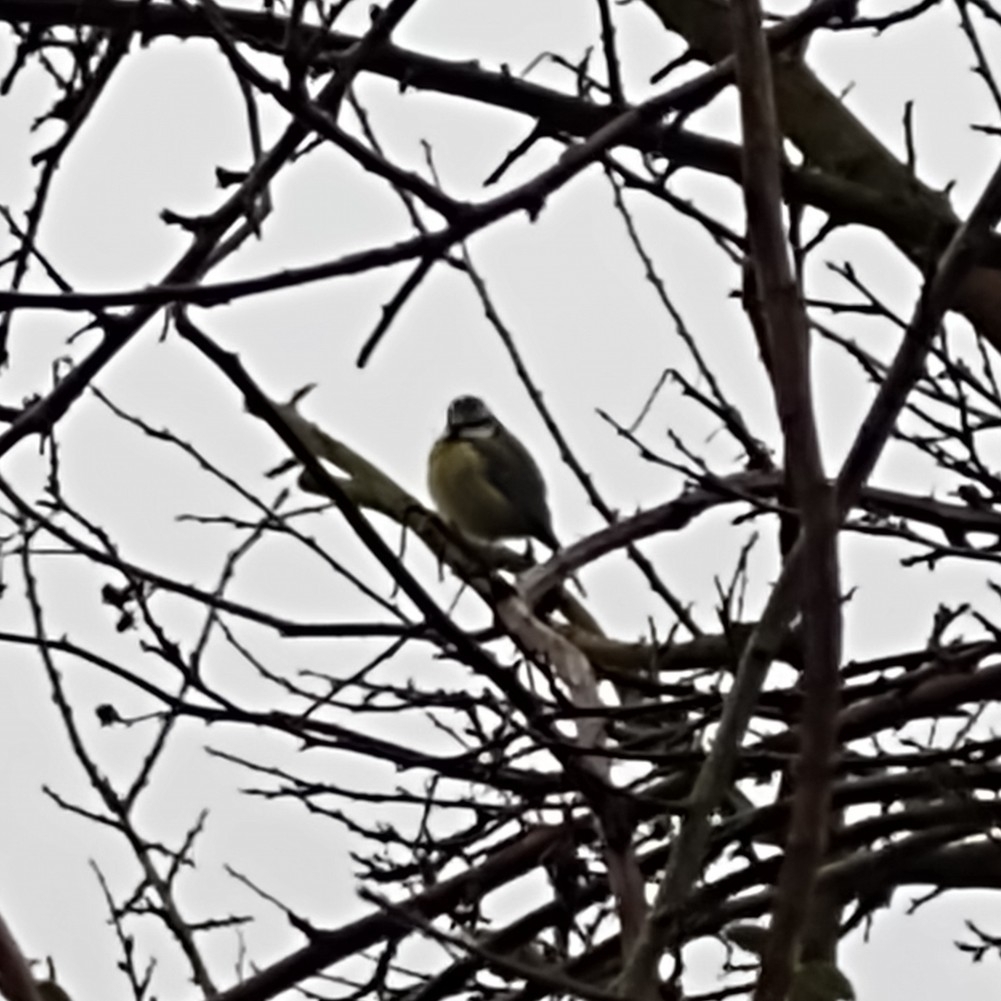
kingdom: Animalia
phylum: Chordata
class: Aves
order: Passeriformes
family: Paridae
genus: Cyanistes
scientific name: Cyanistes caeruleus
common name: Eurasian blue tit
